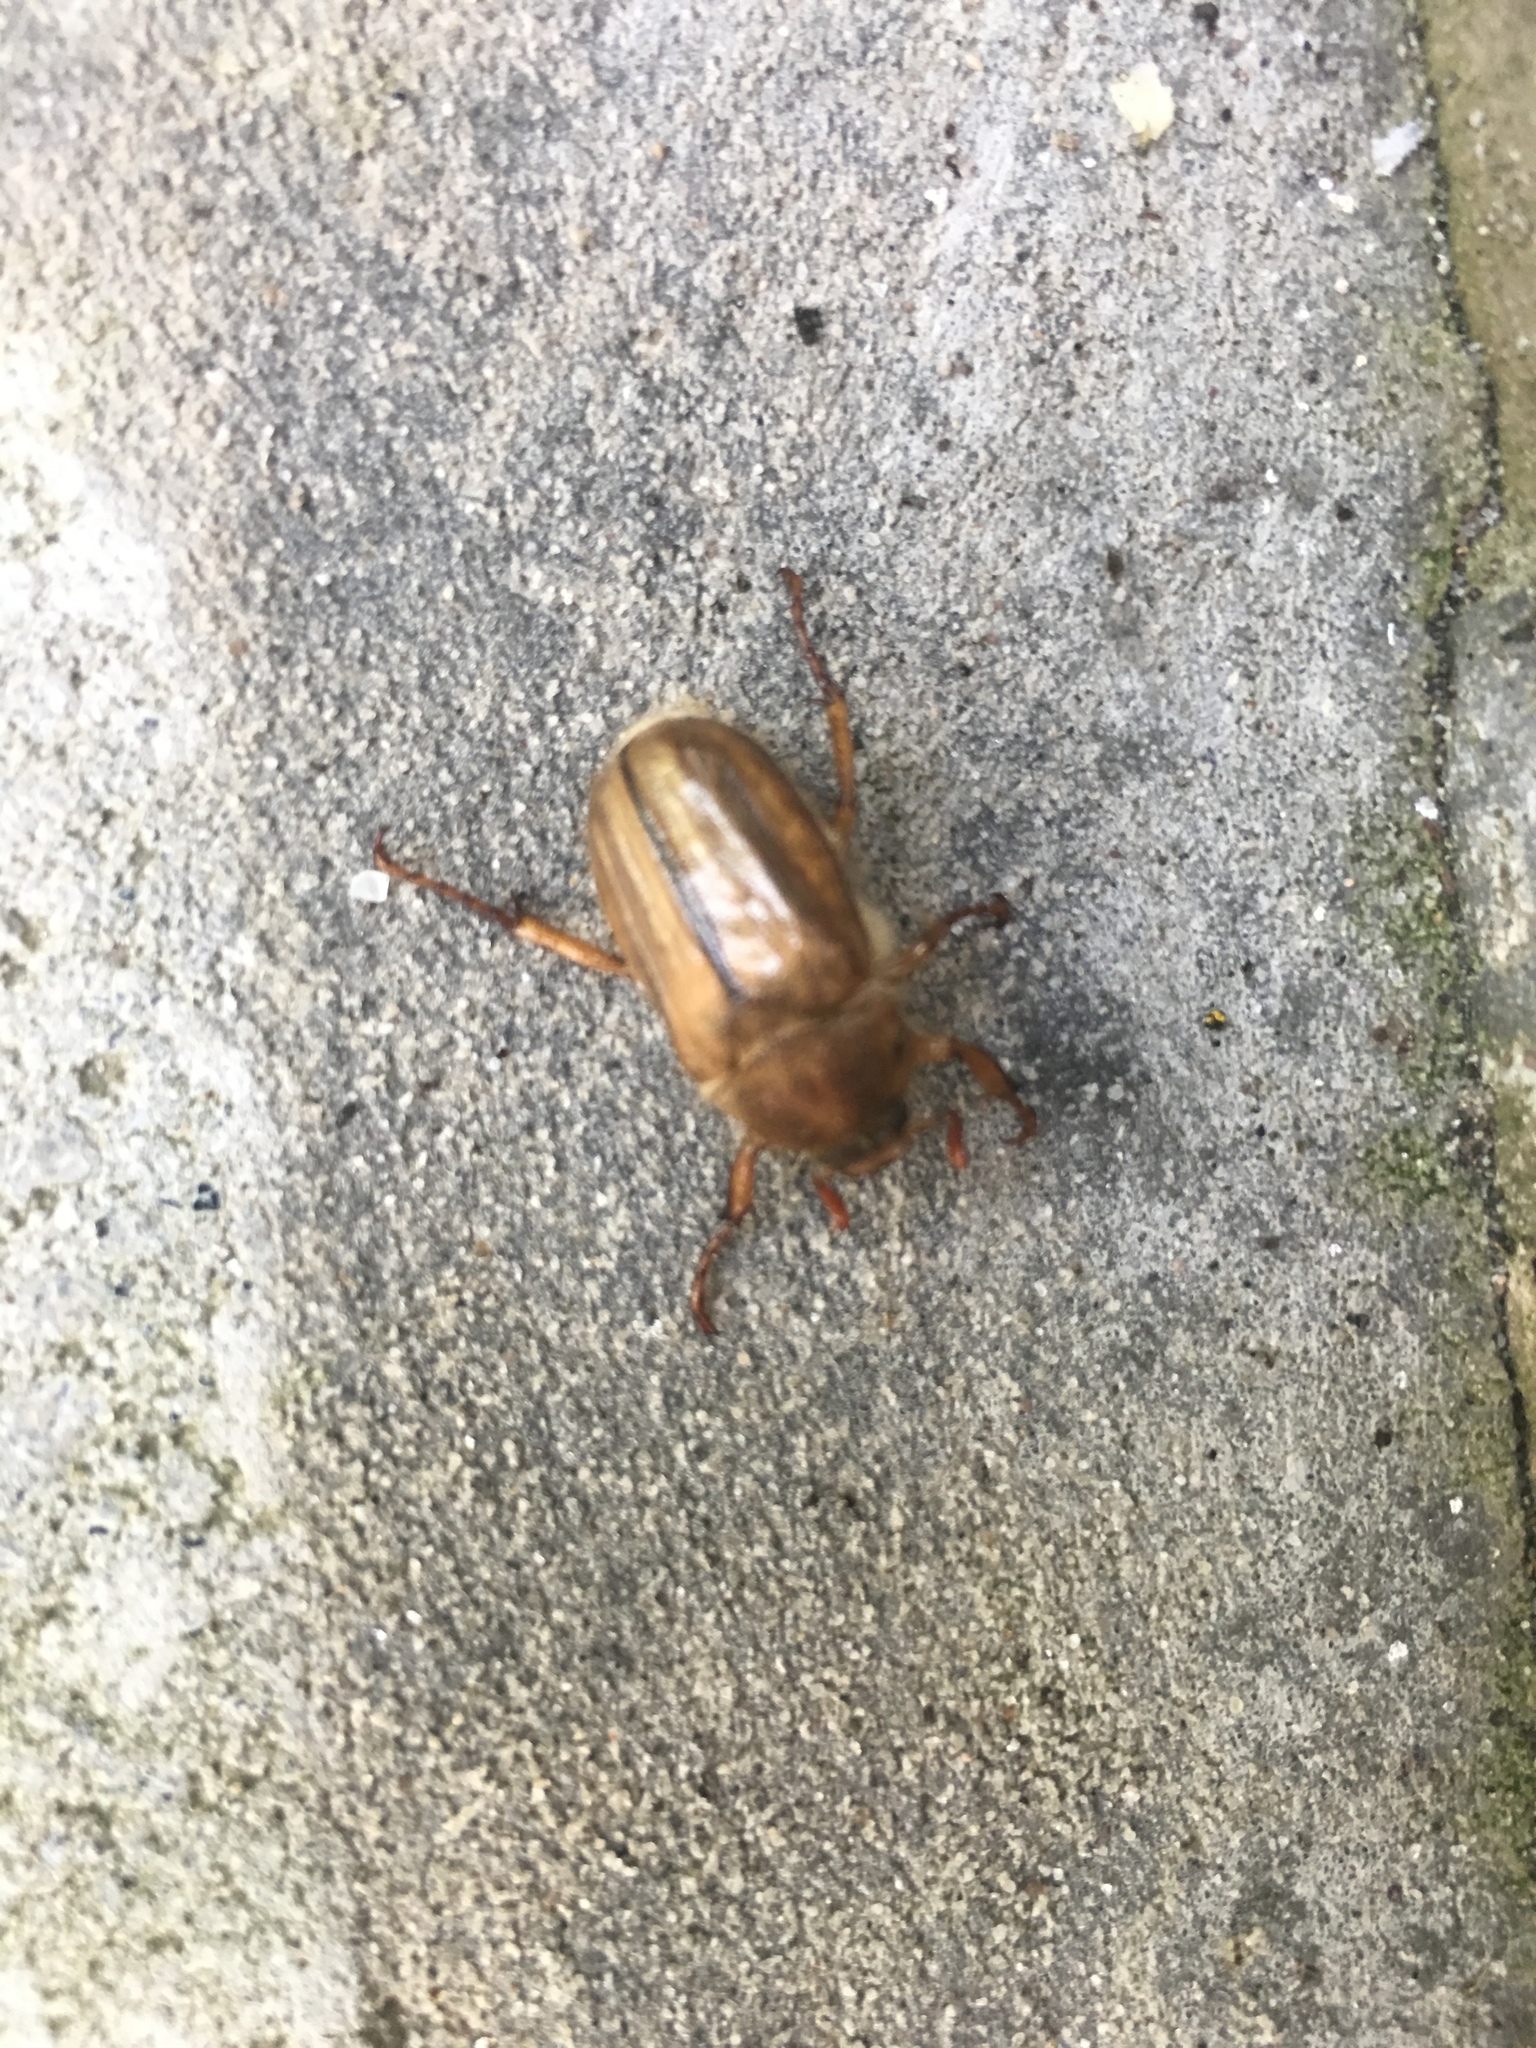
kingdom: Animalia
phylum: Arthropoda
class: Insecta
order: Coleoptera
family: Scarabaeidae
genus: Amphimallon
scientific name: Amphimallon solstitiale
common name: Summer chafer
